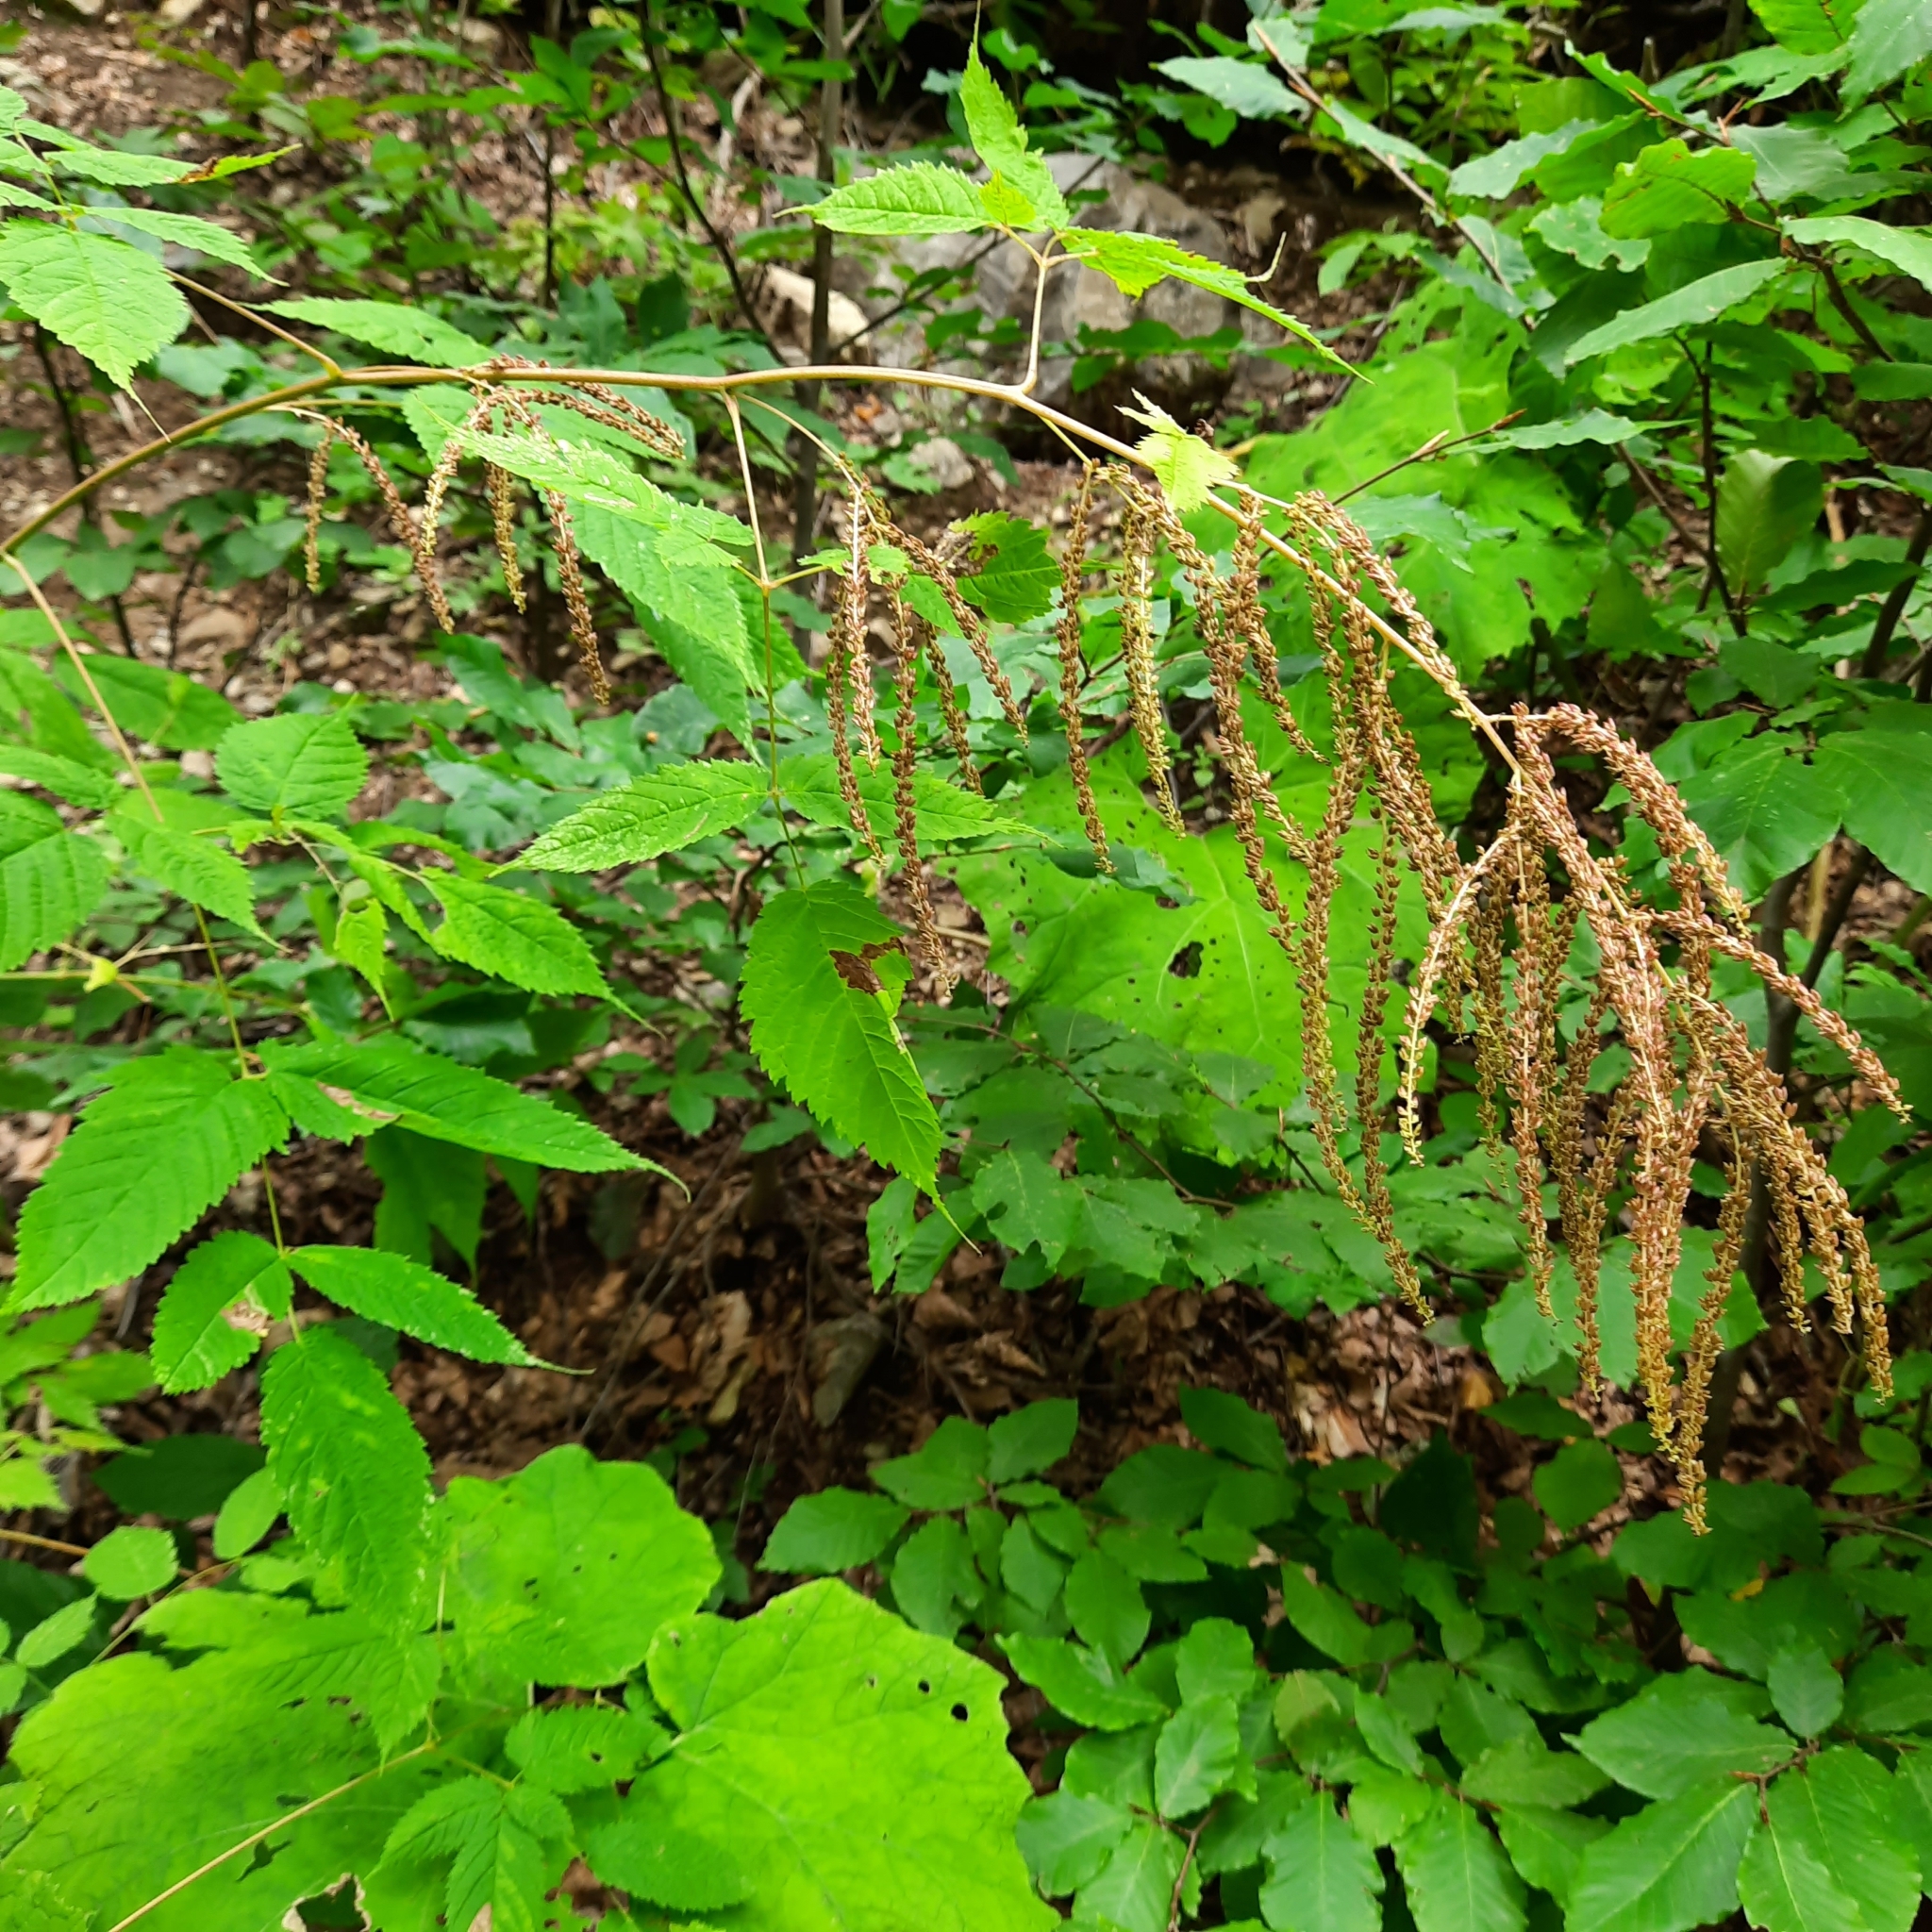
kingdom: Plantae
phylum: Tracheophyta
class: Magnoliopsida
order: Rosales
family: Rosaceae
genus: Aruncus
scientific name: Aruncus dioicus
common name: Buck's-beard
